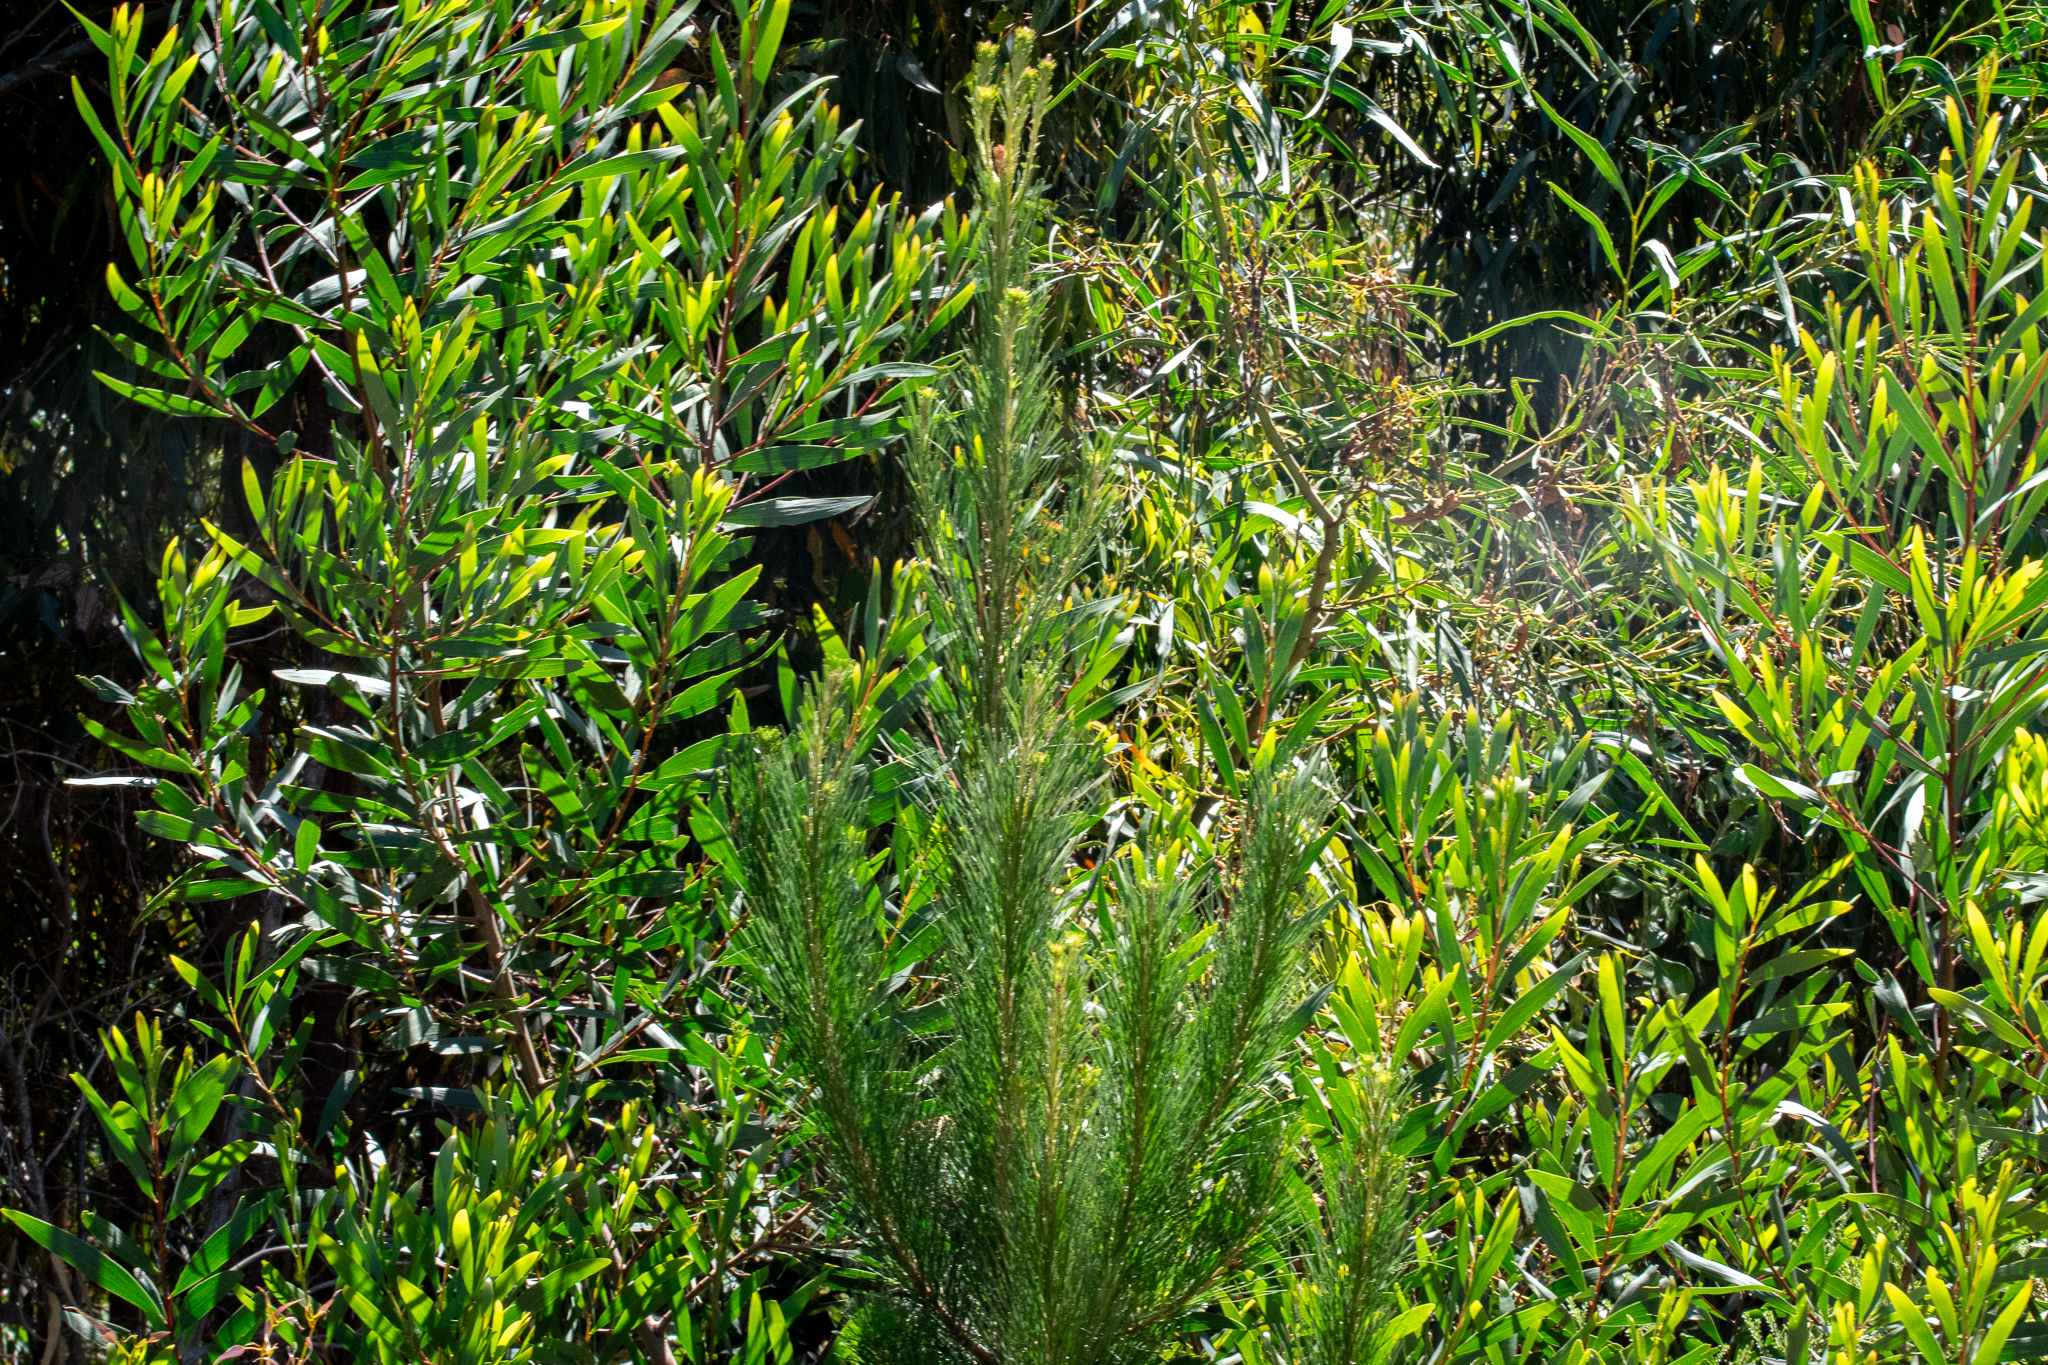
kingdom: Plantae
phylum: Tracheophyta
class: Pinopsida
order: Pinales
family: Pinaceae
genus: Pinus
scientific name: Pinus radiata
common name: Monterey pine
